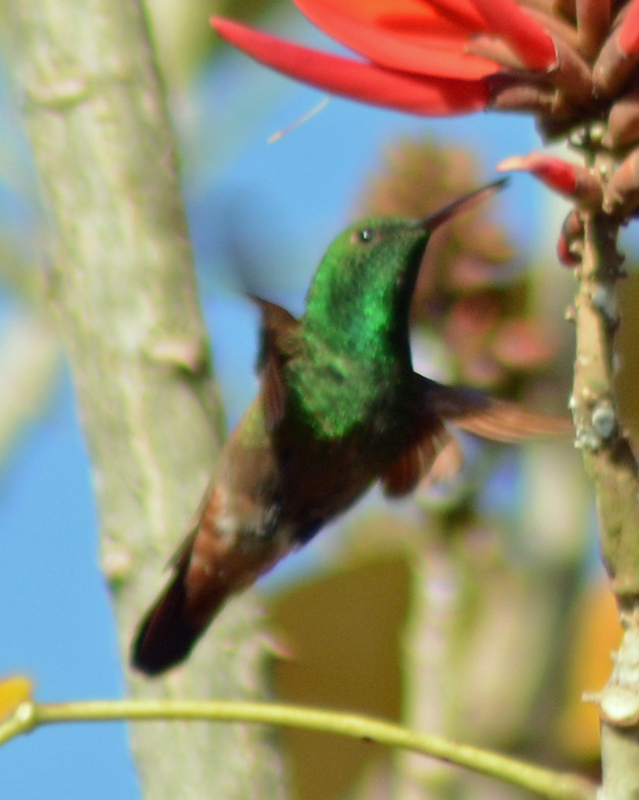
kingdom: Animalia
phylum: Chordata
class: Aves
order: Apodiformes
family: Trochilidae
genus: Saucerottia
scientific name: Saucerottia beryllina
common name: Berylline hummingbird
